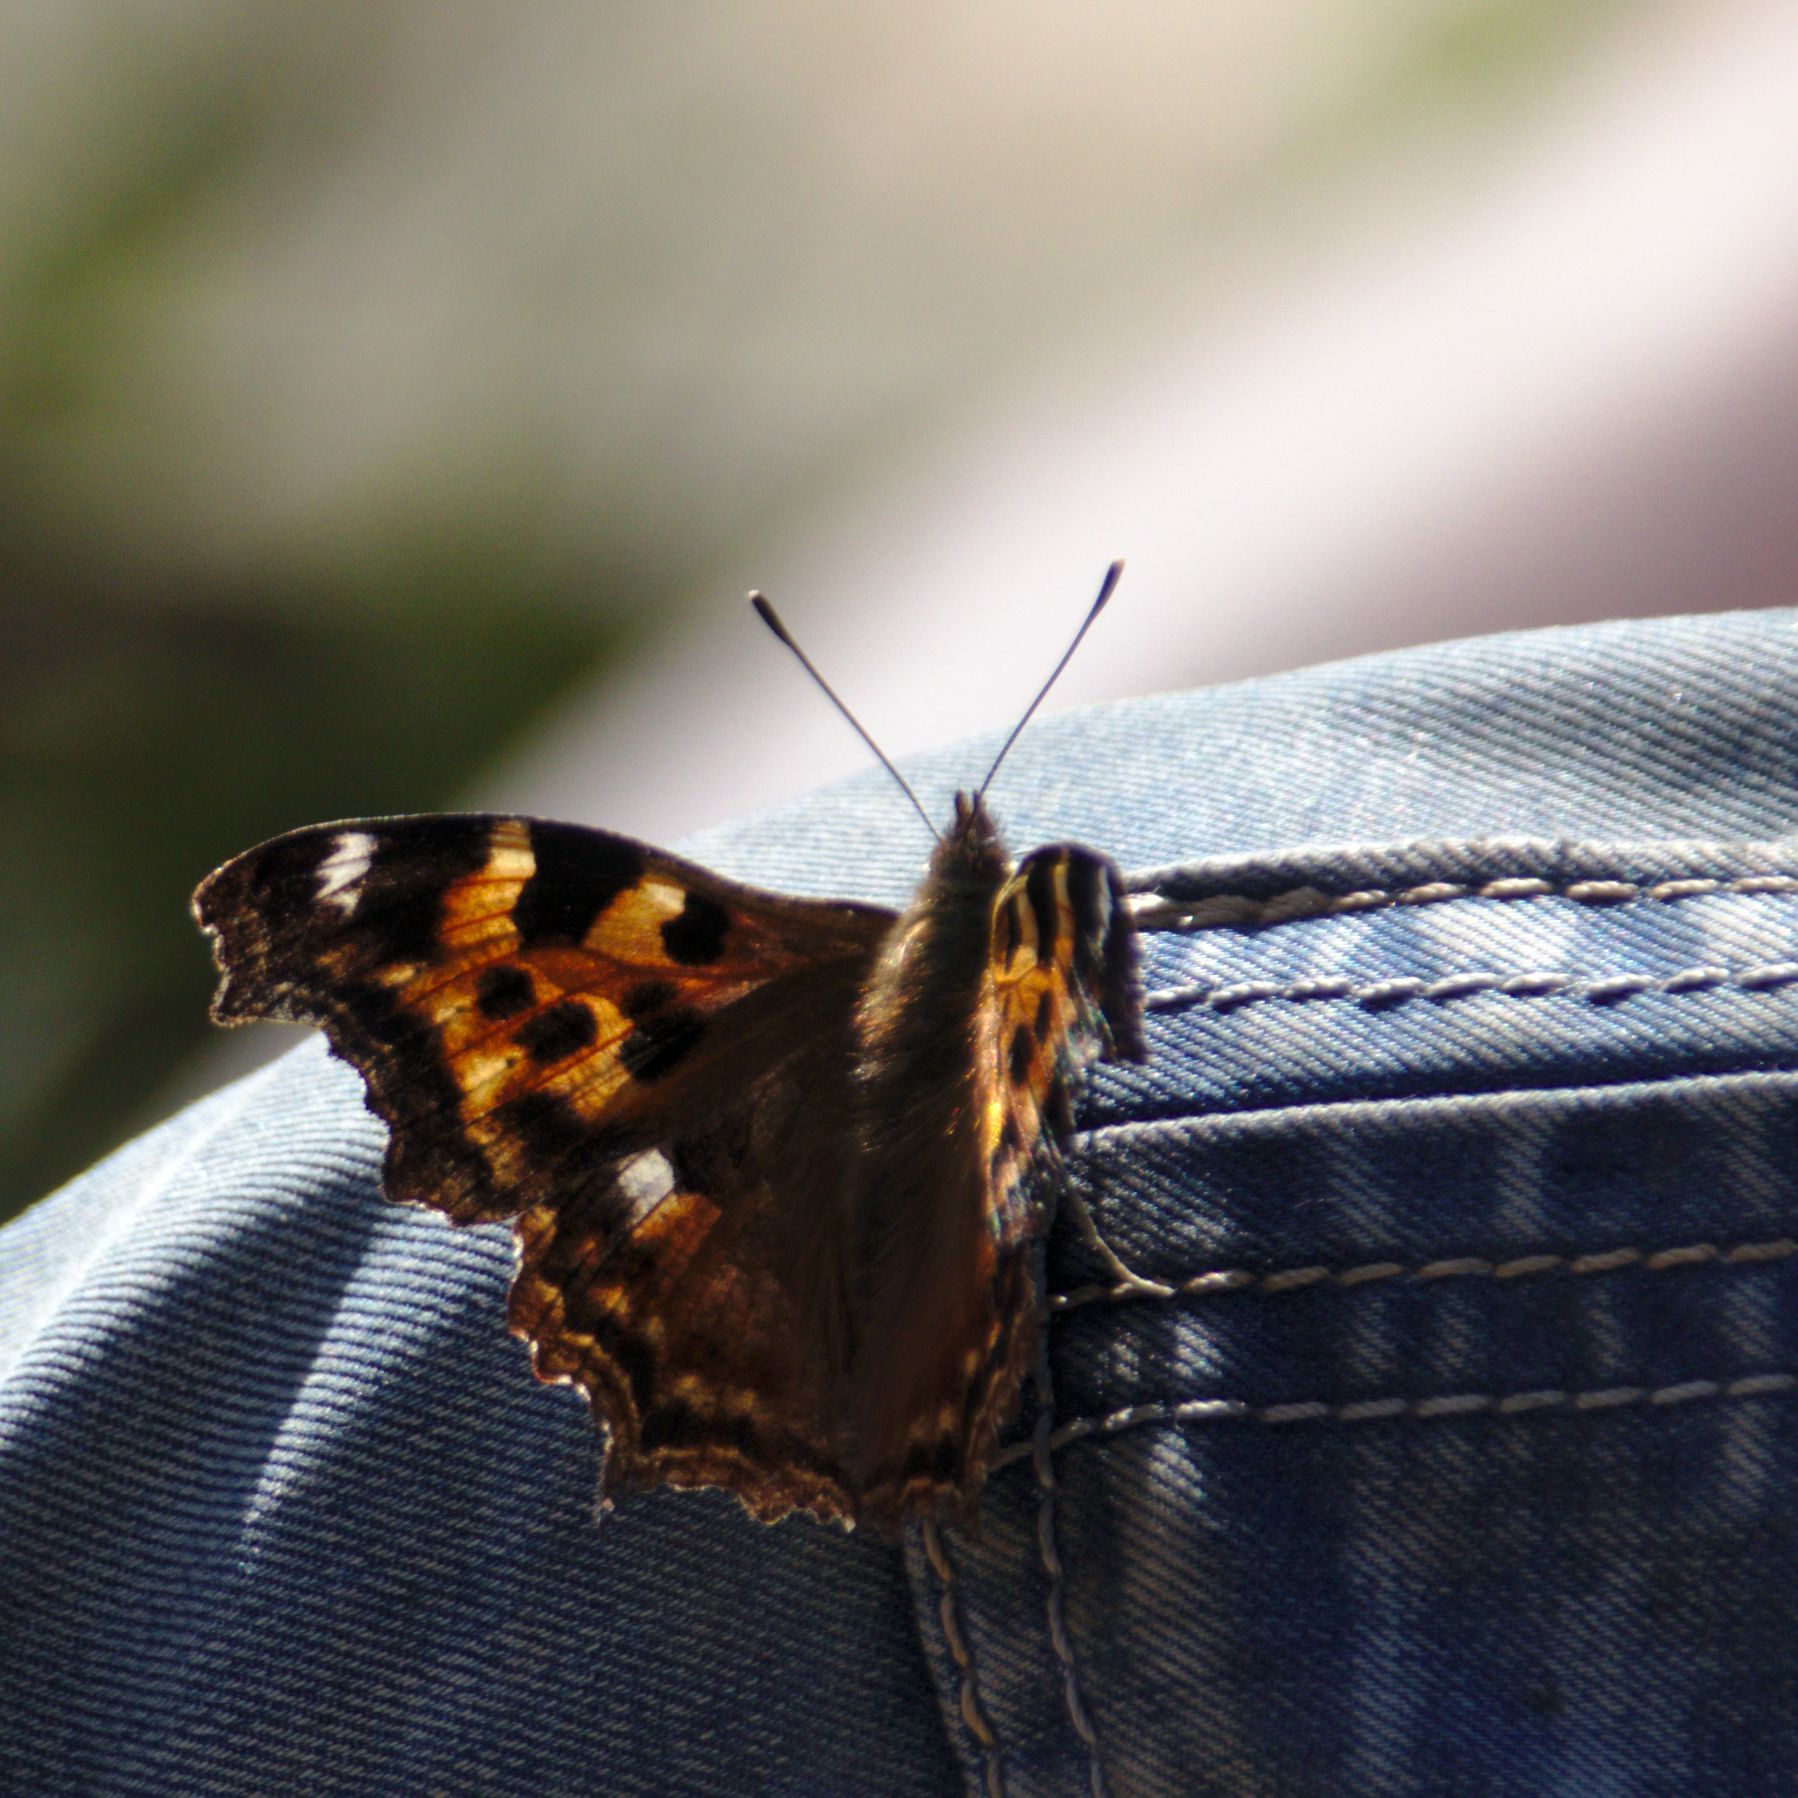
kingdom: Animalia
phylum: Arthropoda
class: Insecta
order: Lepidoptera
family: Nymphalidae
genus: Polygonia
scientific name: Polygonia vaualbum
